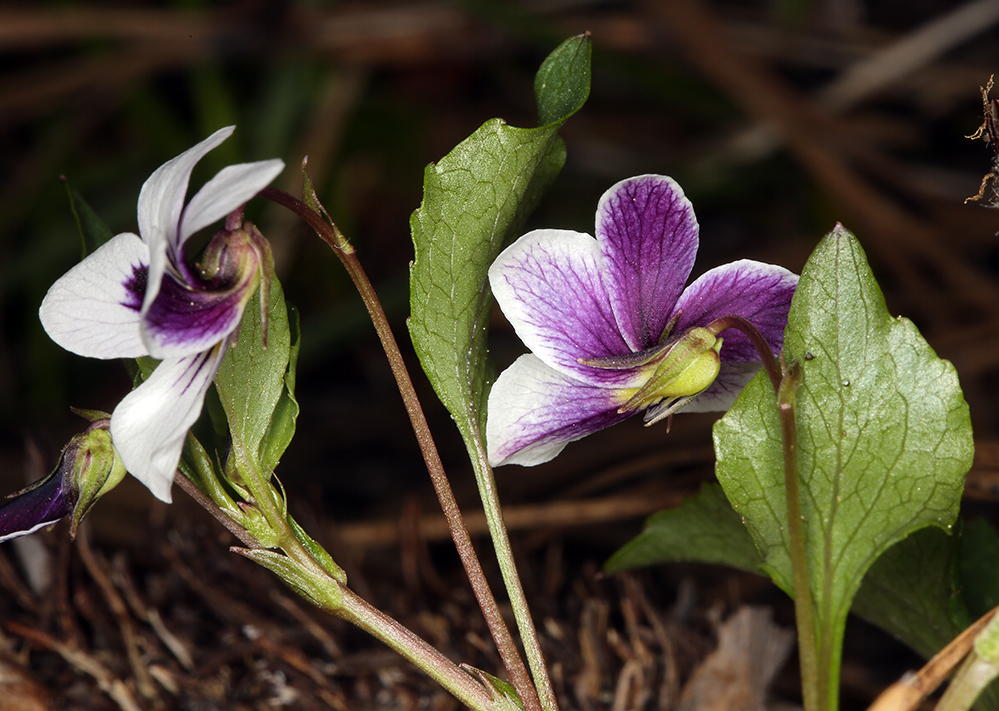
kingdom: Plantae
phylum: Tracheophyta
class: Magnoliopsida
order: Malpighiales
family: Violaceae
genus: Viola
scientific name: Viola cuneata
